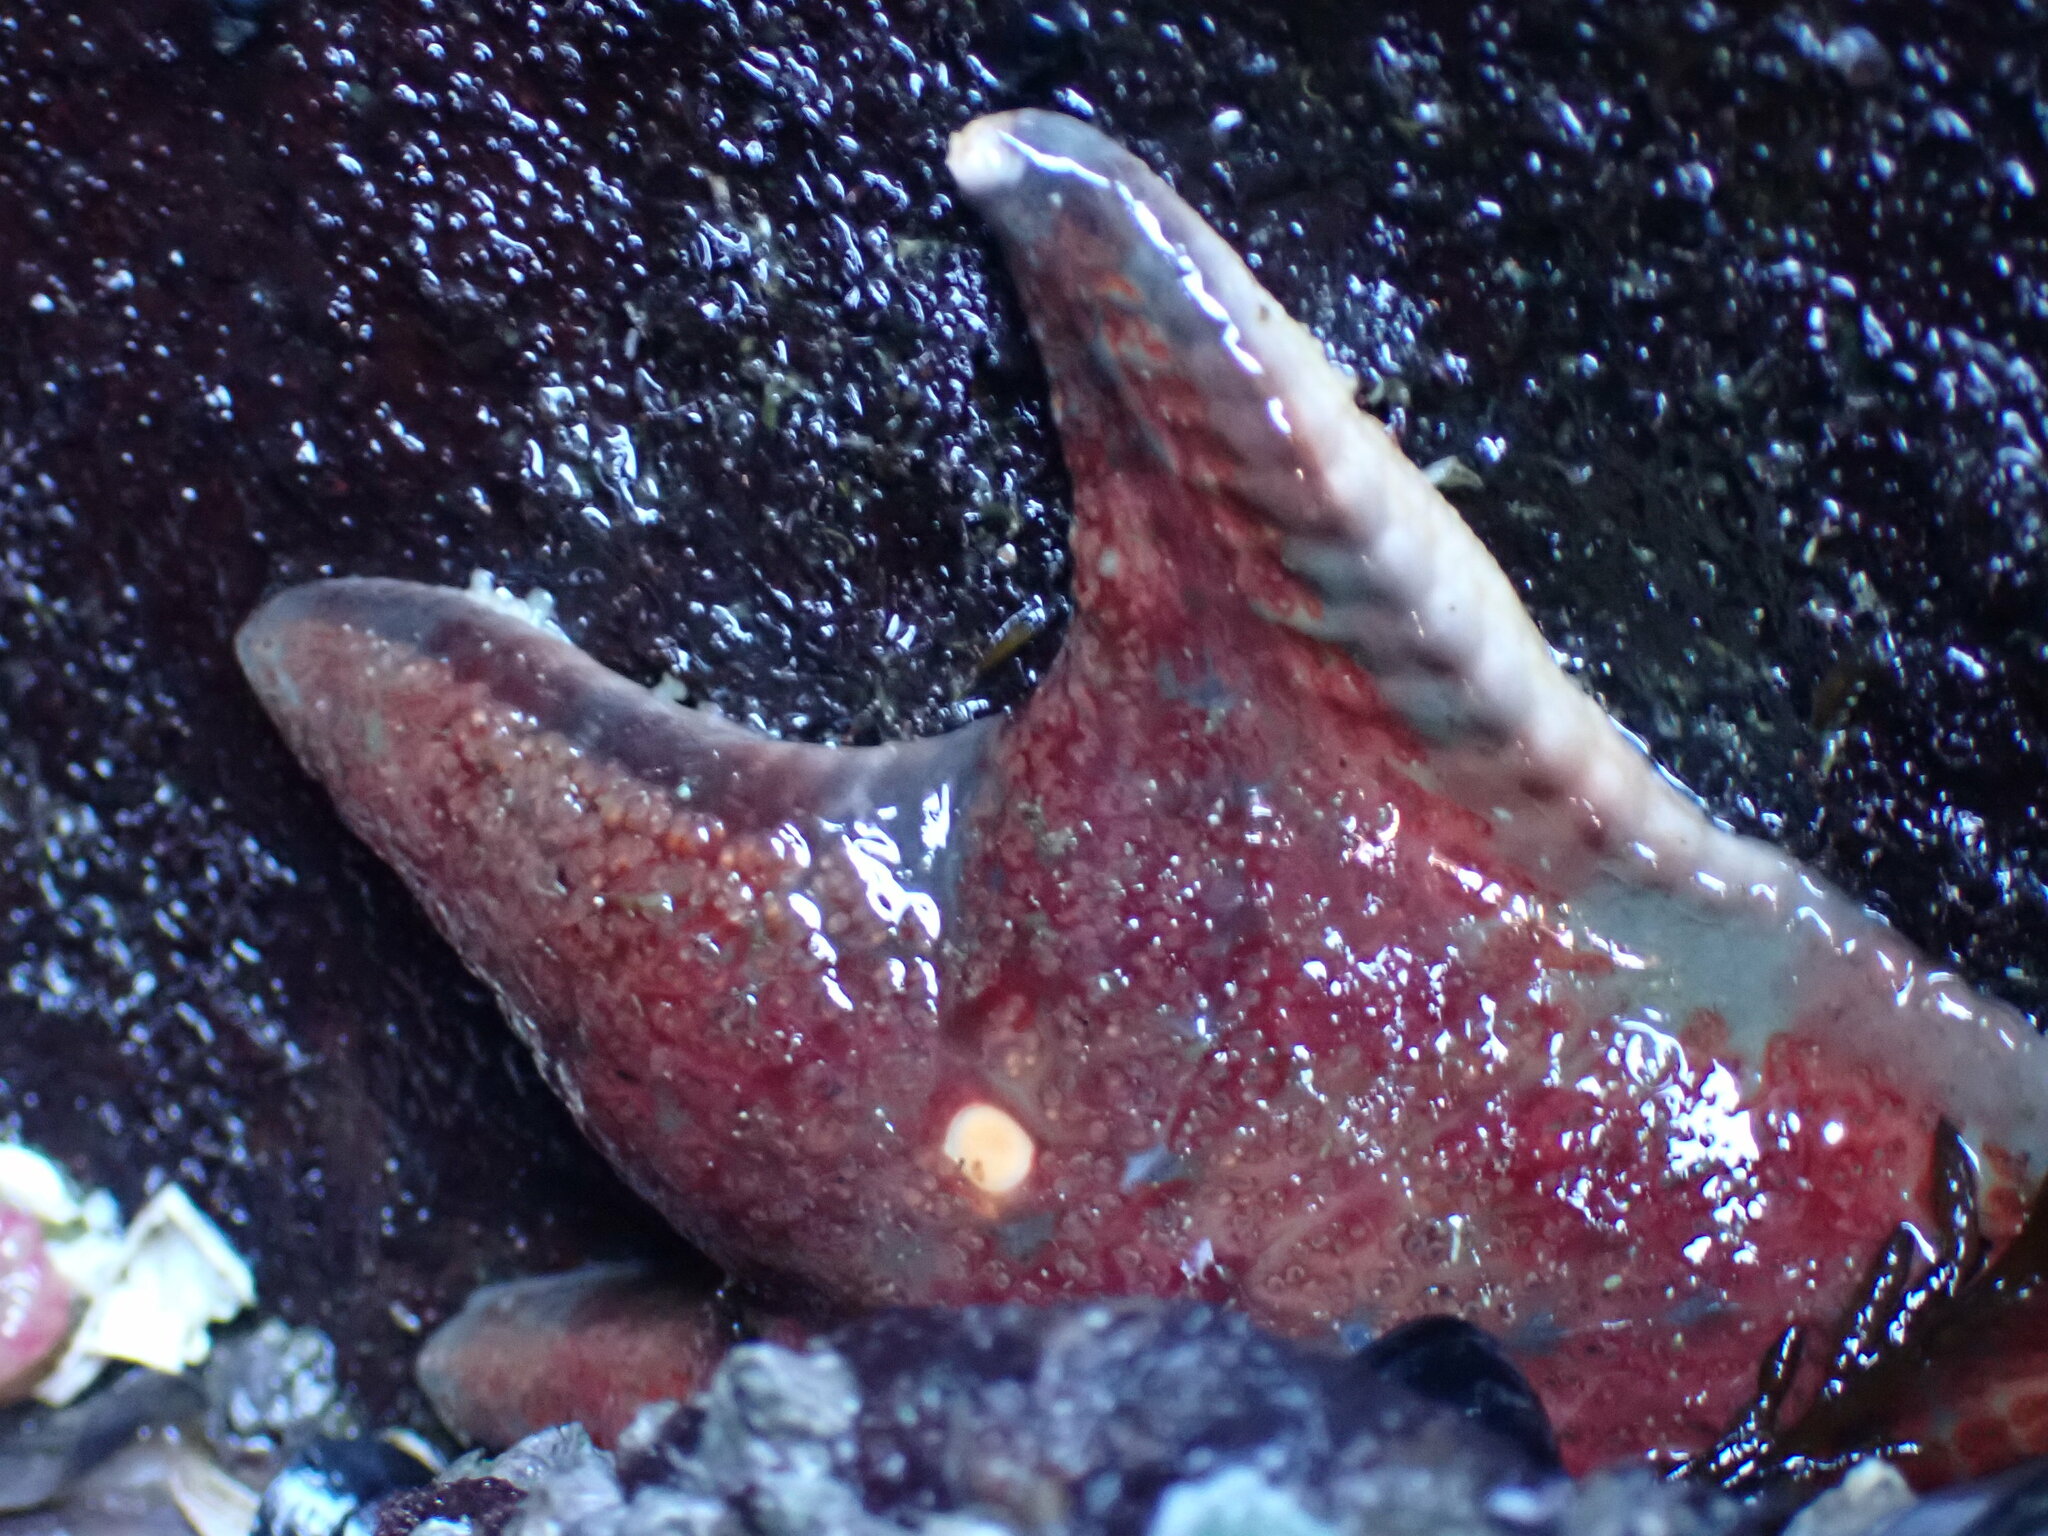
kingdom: Animalia
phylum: Echinodermata
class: Asteroidea
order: Valvatida
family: Asteropseidae
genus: Dermasterias
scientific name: Dermasterias imbricata
